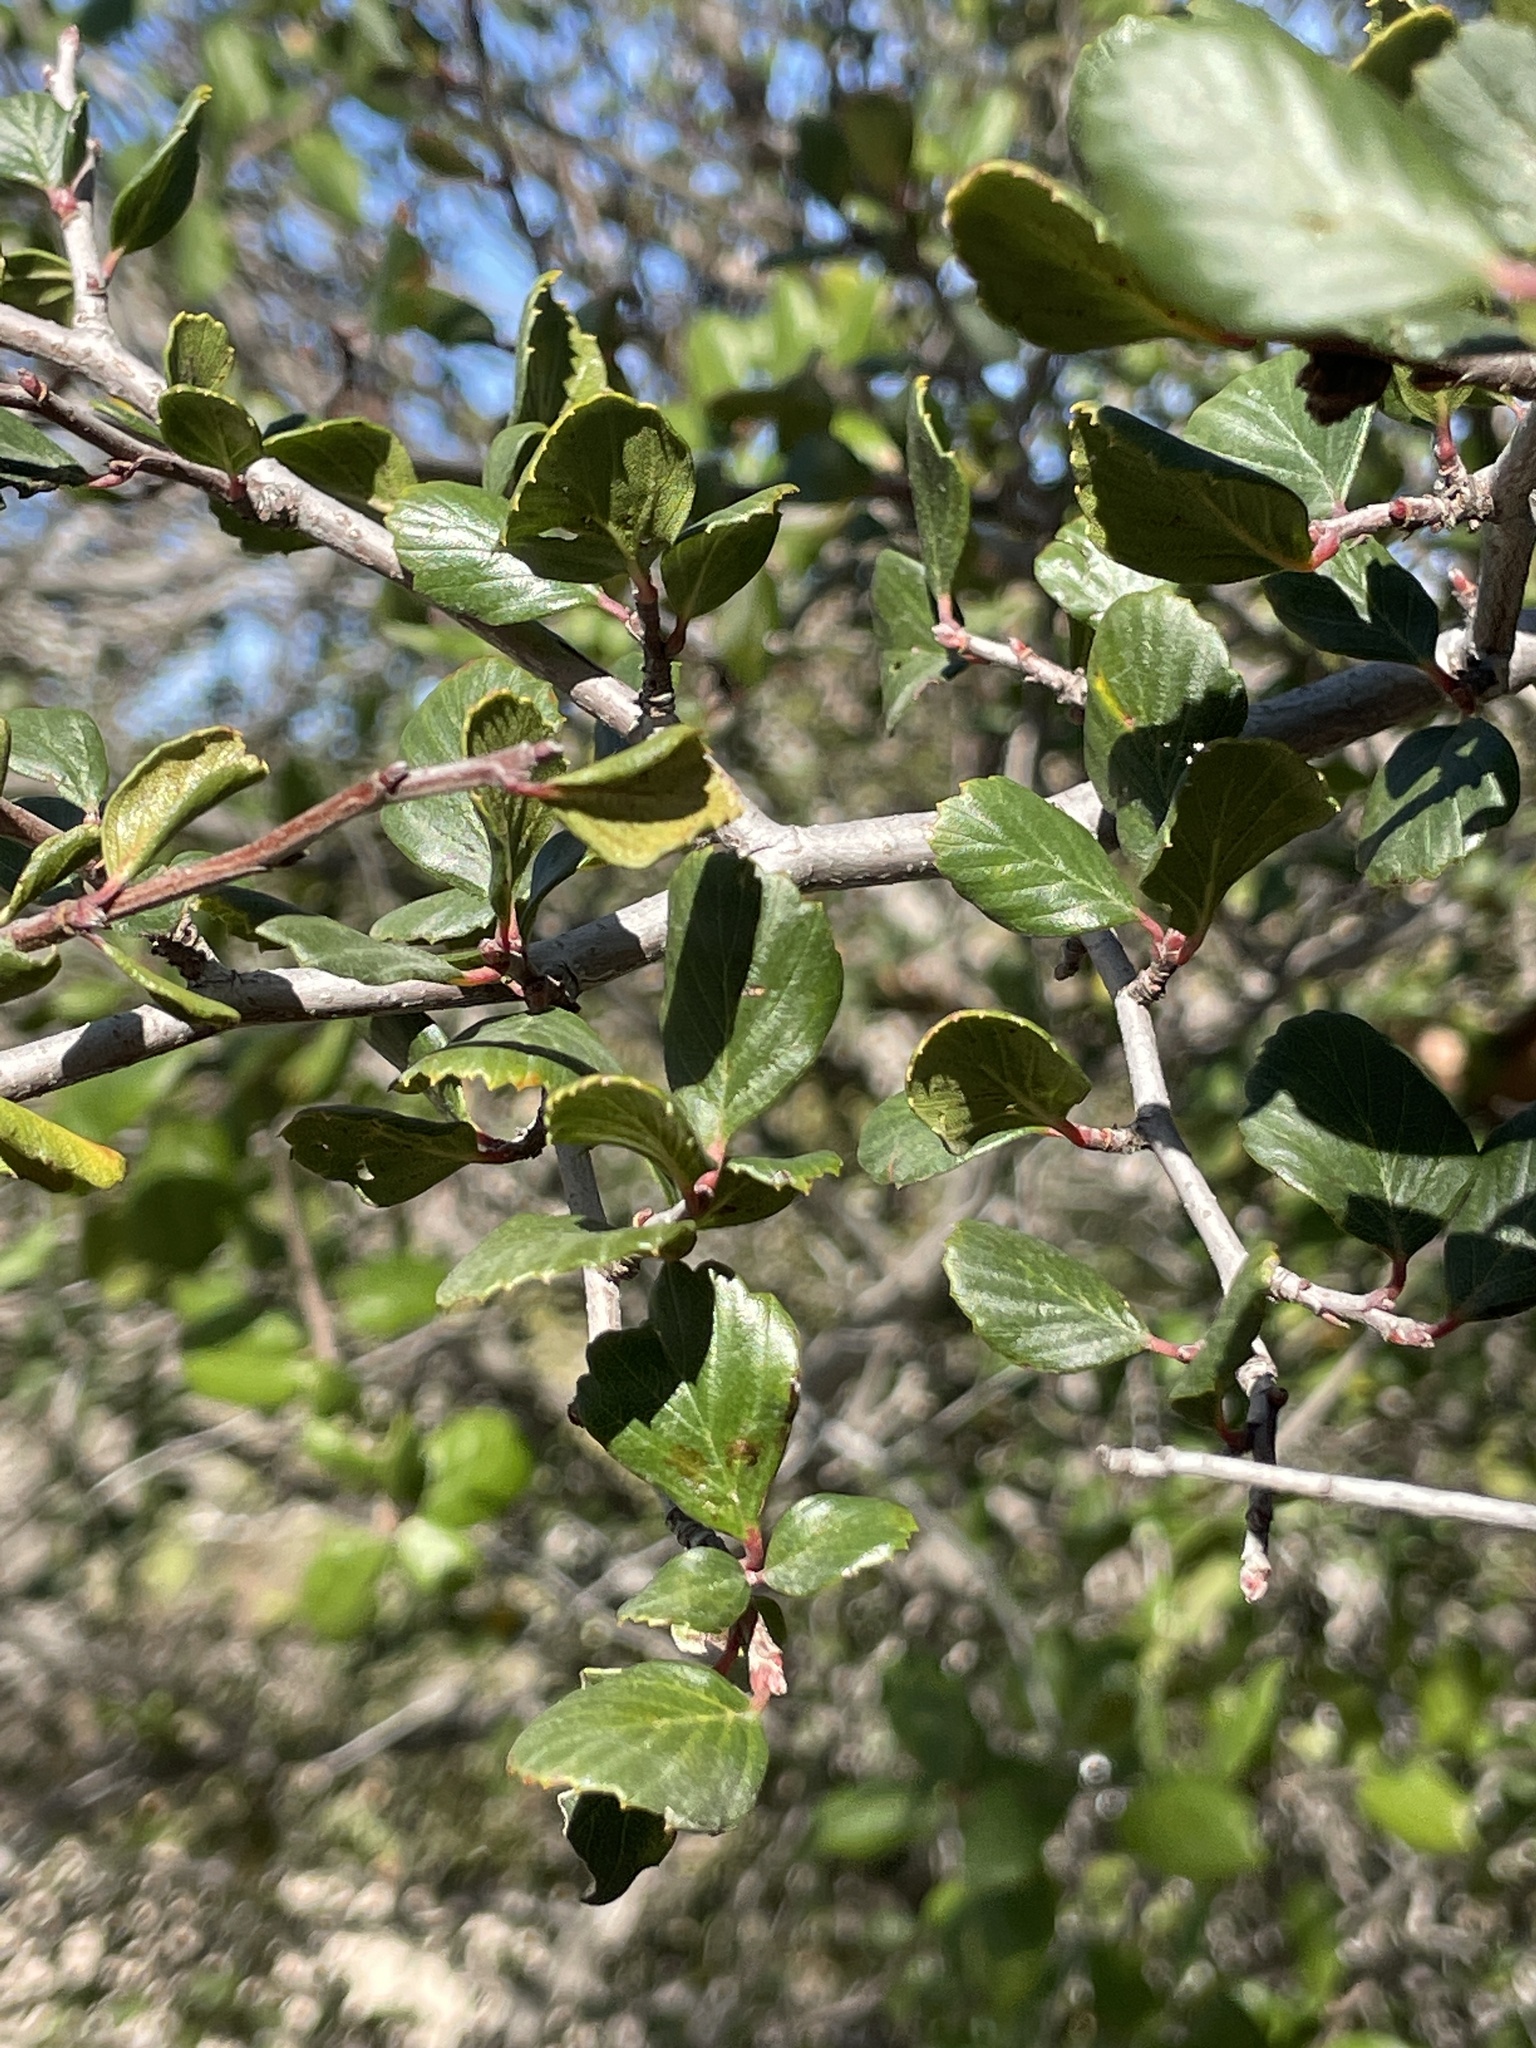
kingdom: Plantae
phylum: Tracheophyta
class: Magnoliopsida
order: Rosales
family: Rosaceae
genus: Cercocarpus
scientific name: Cercocarpus montanus
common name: Alder-leaf cercocarpus
